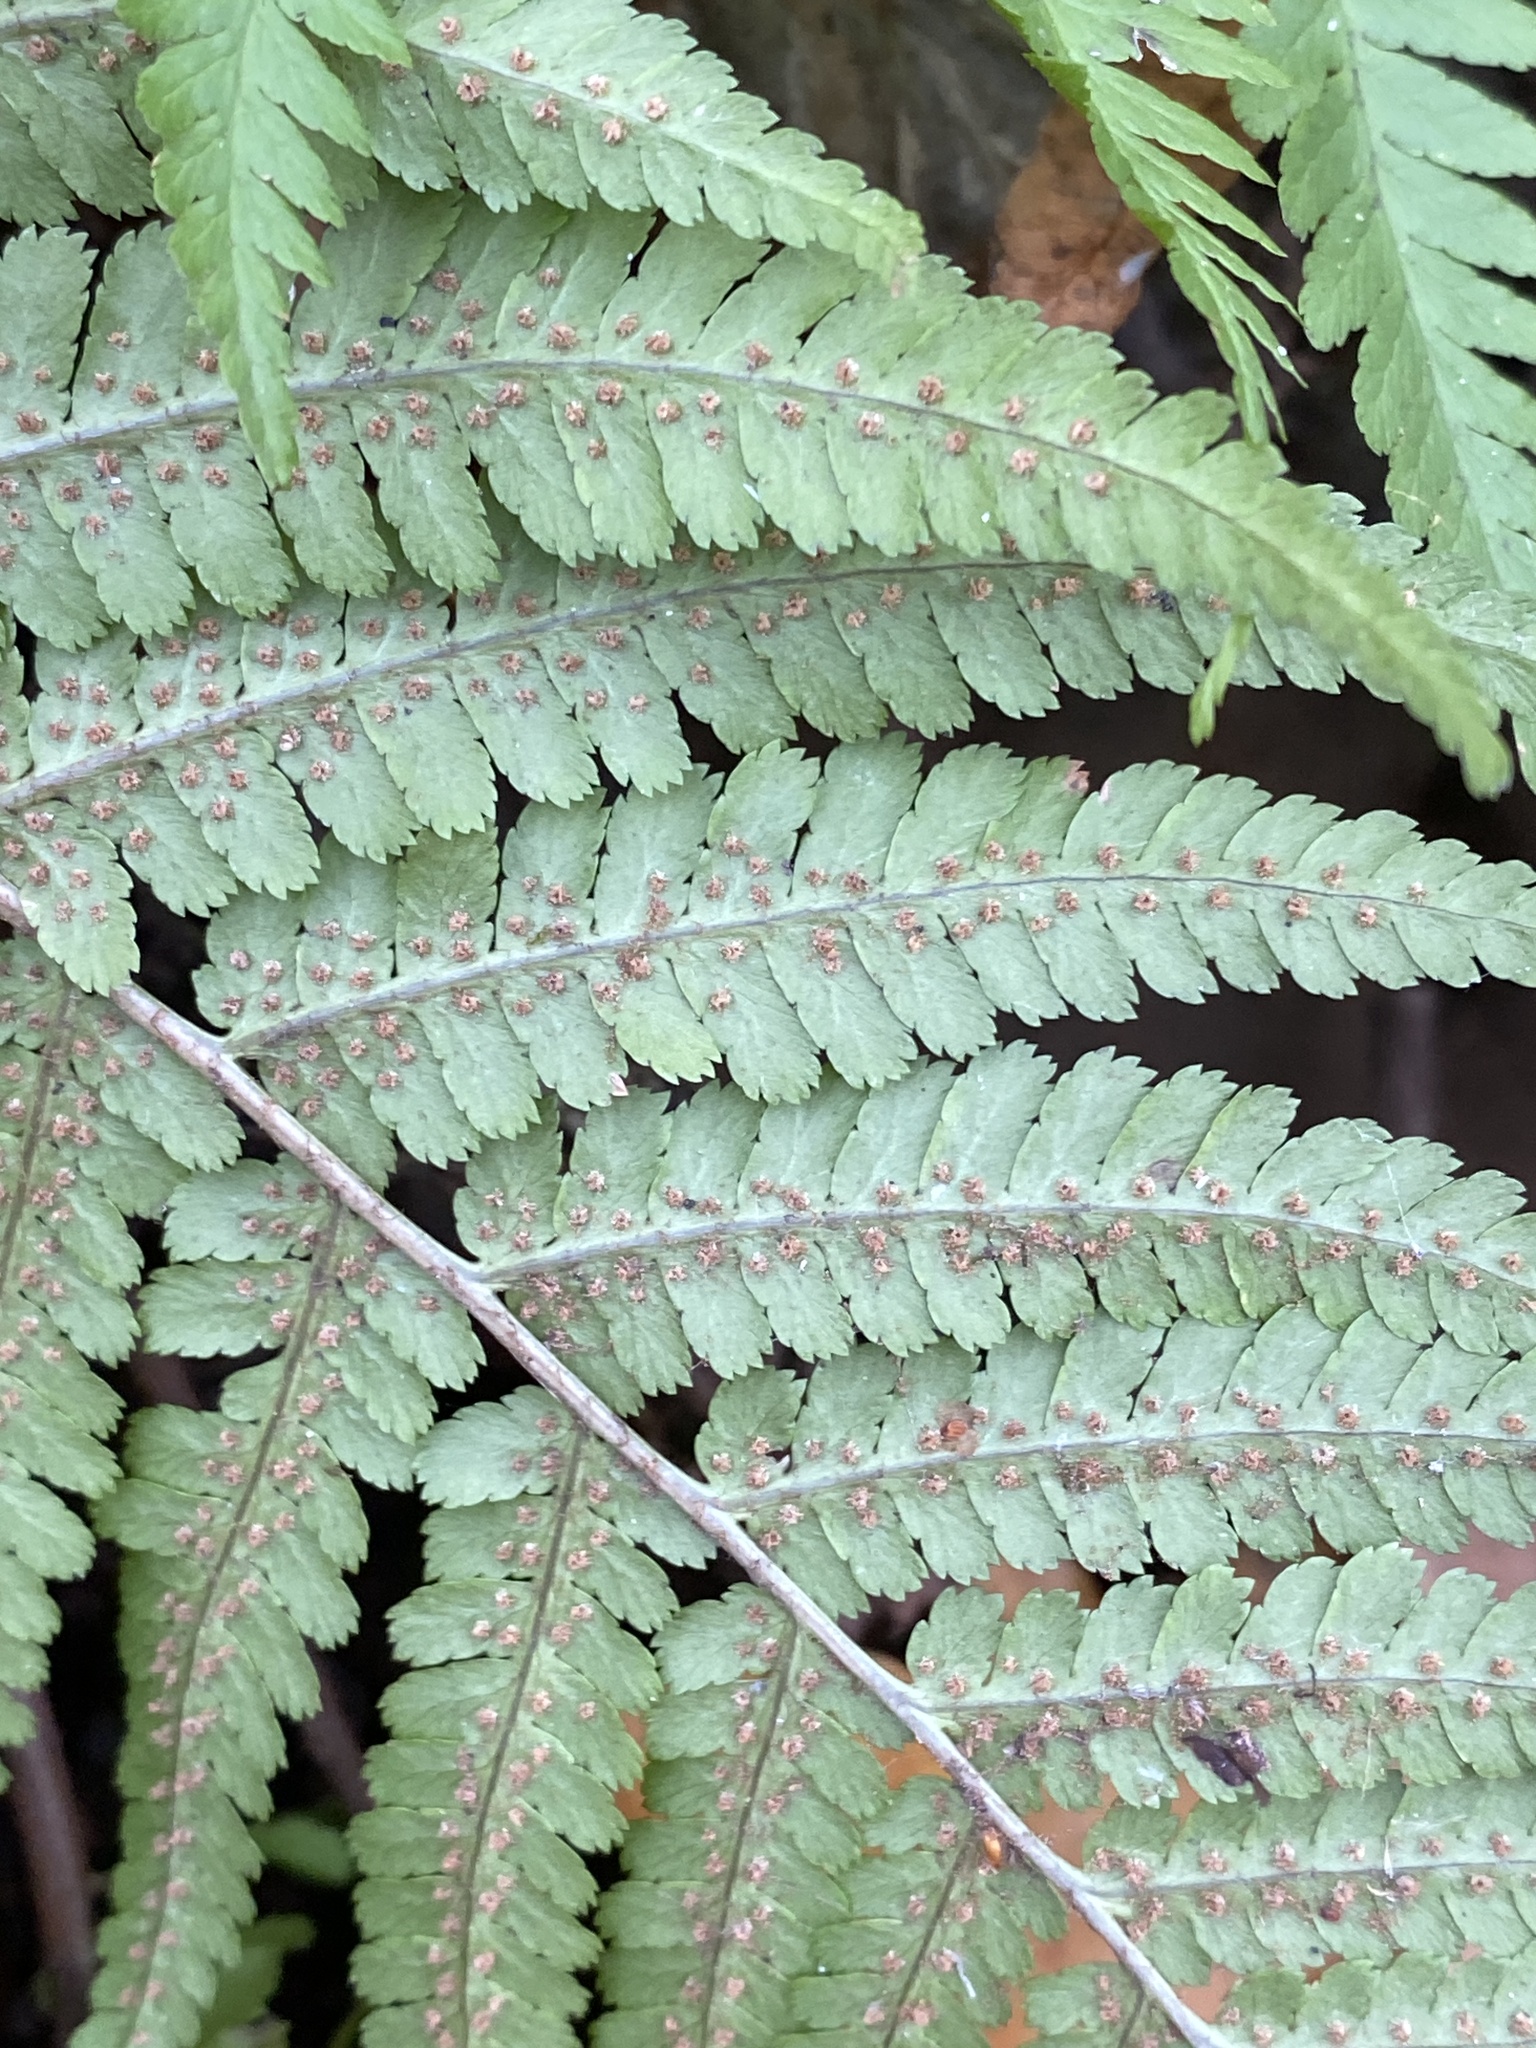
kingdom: Plantae
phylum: Tracheophyta
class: Polypodiopsida
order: Polypodiales
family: Dryopteridaceae
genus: Dryopteris
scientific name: Dryopteris filix-mas
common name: Male fern
